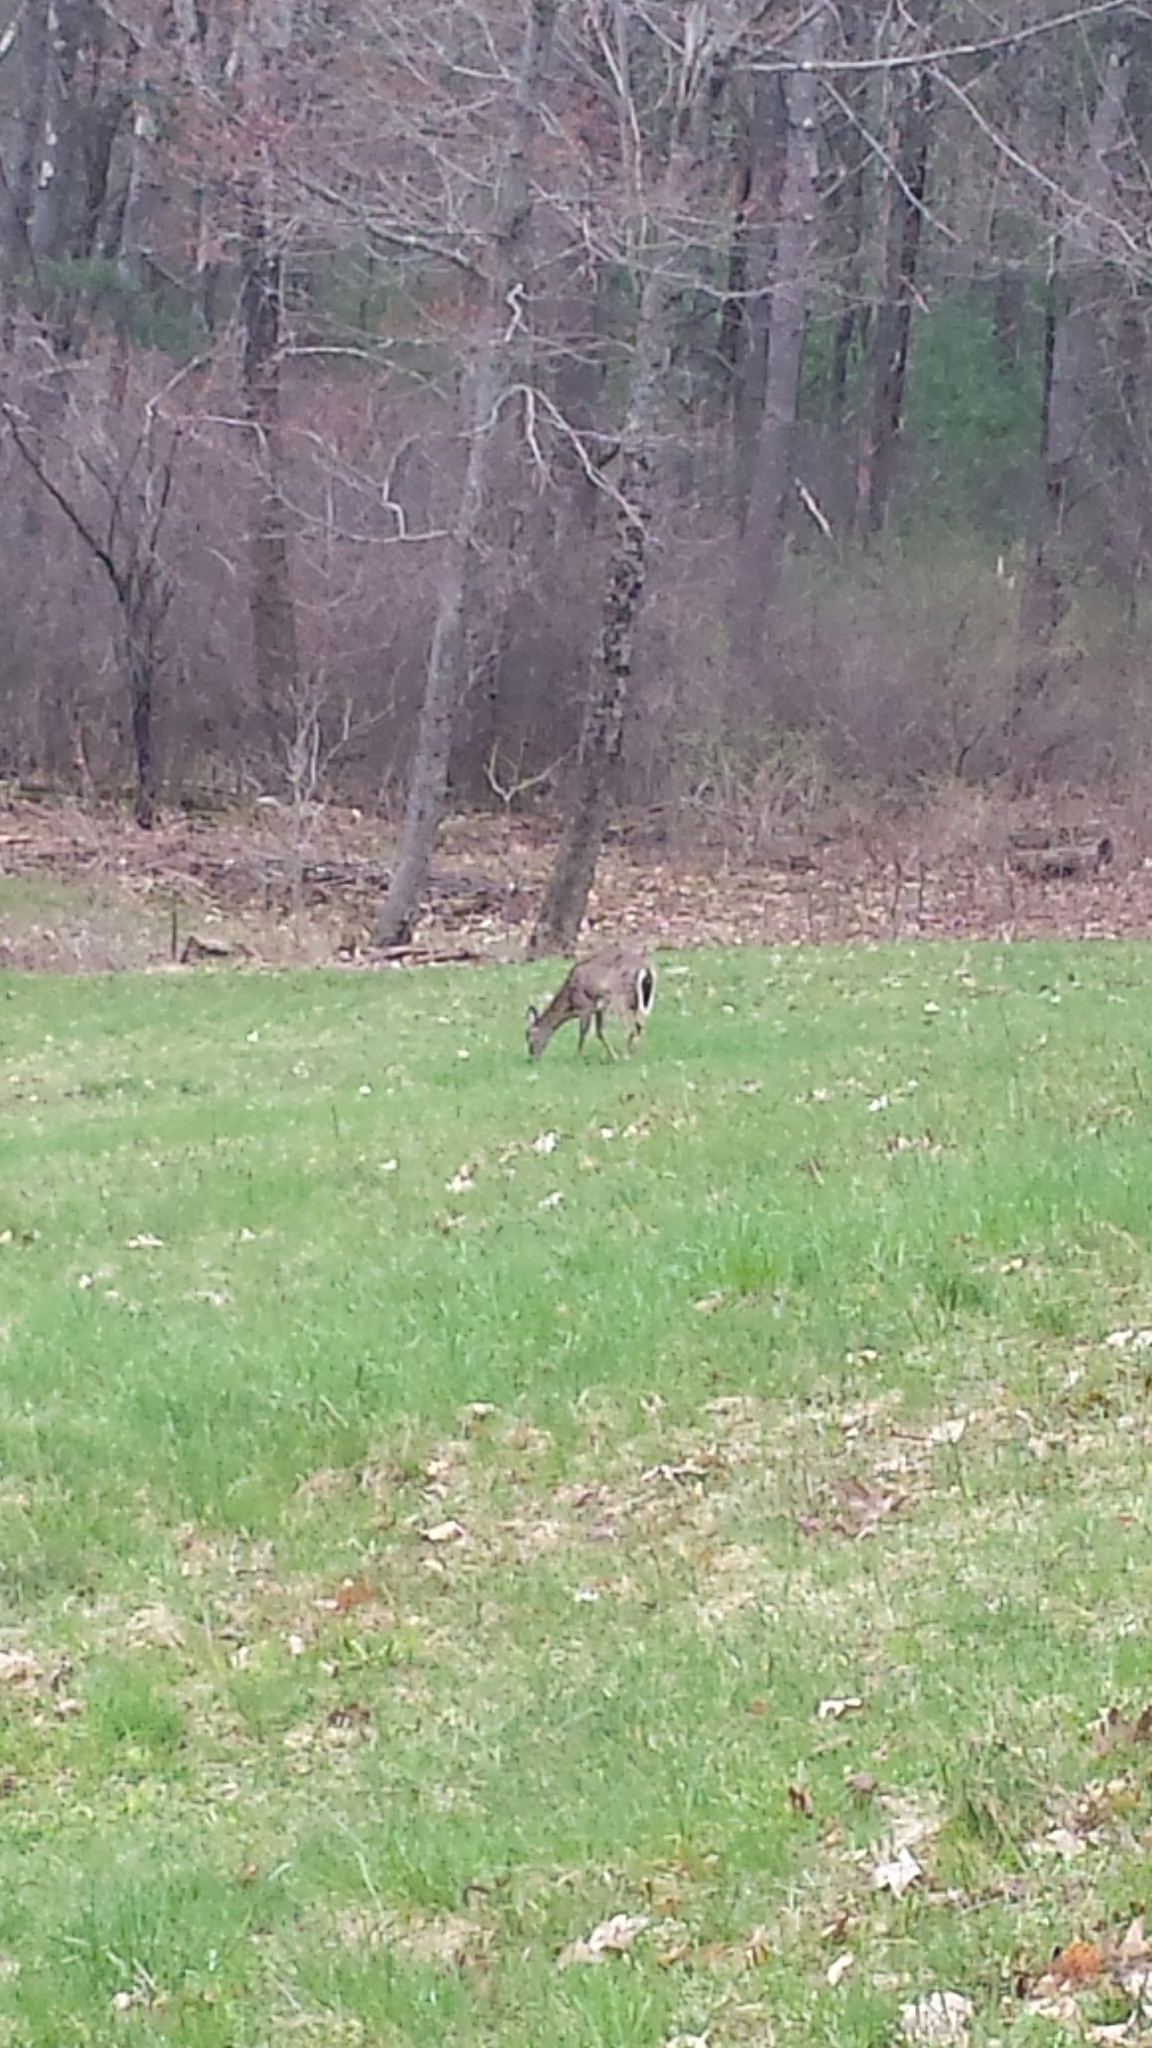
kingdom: Animalia
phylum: Chordata
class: Mammalia
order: Artiodactyla
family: Cervidae
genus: Odocoileus
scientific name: Odocoileus virginianus
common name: White-tailed deer
